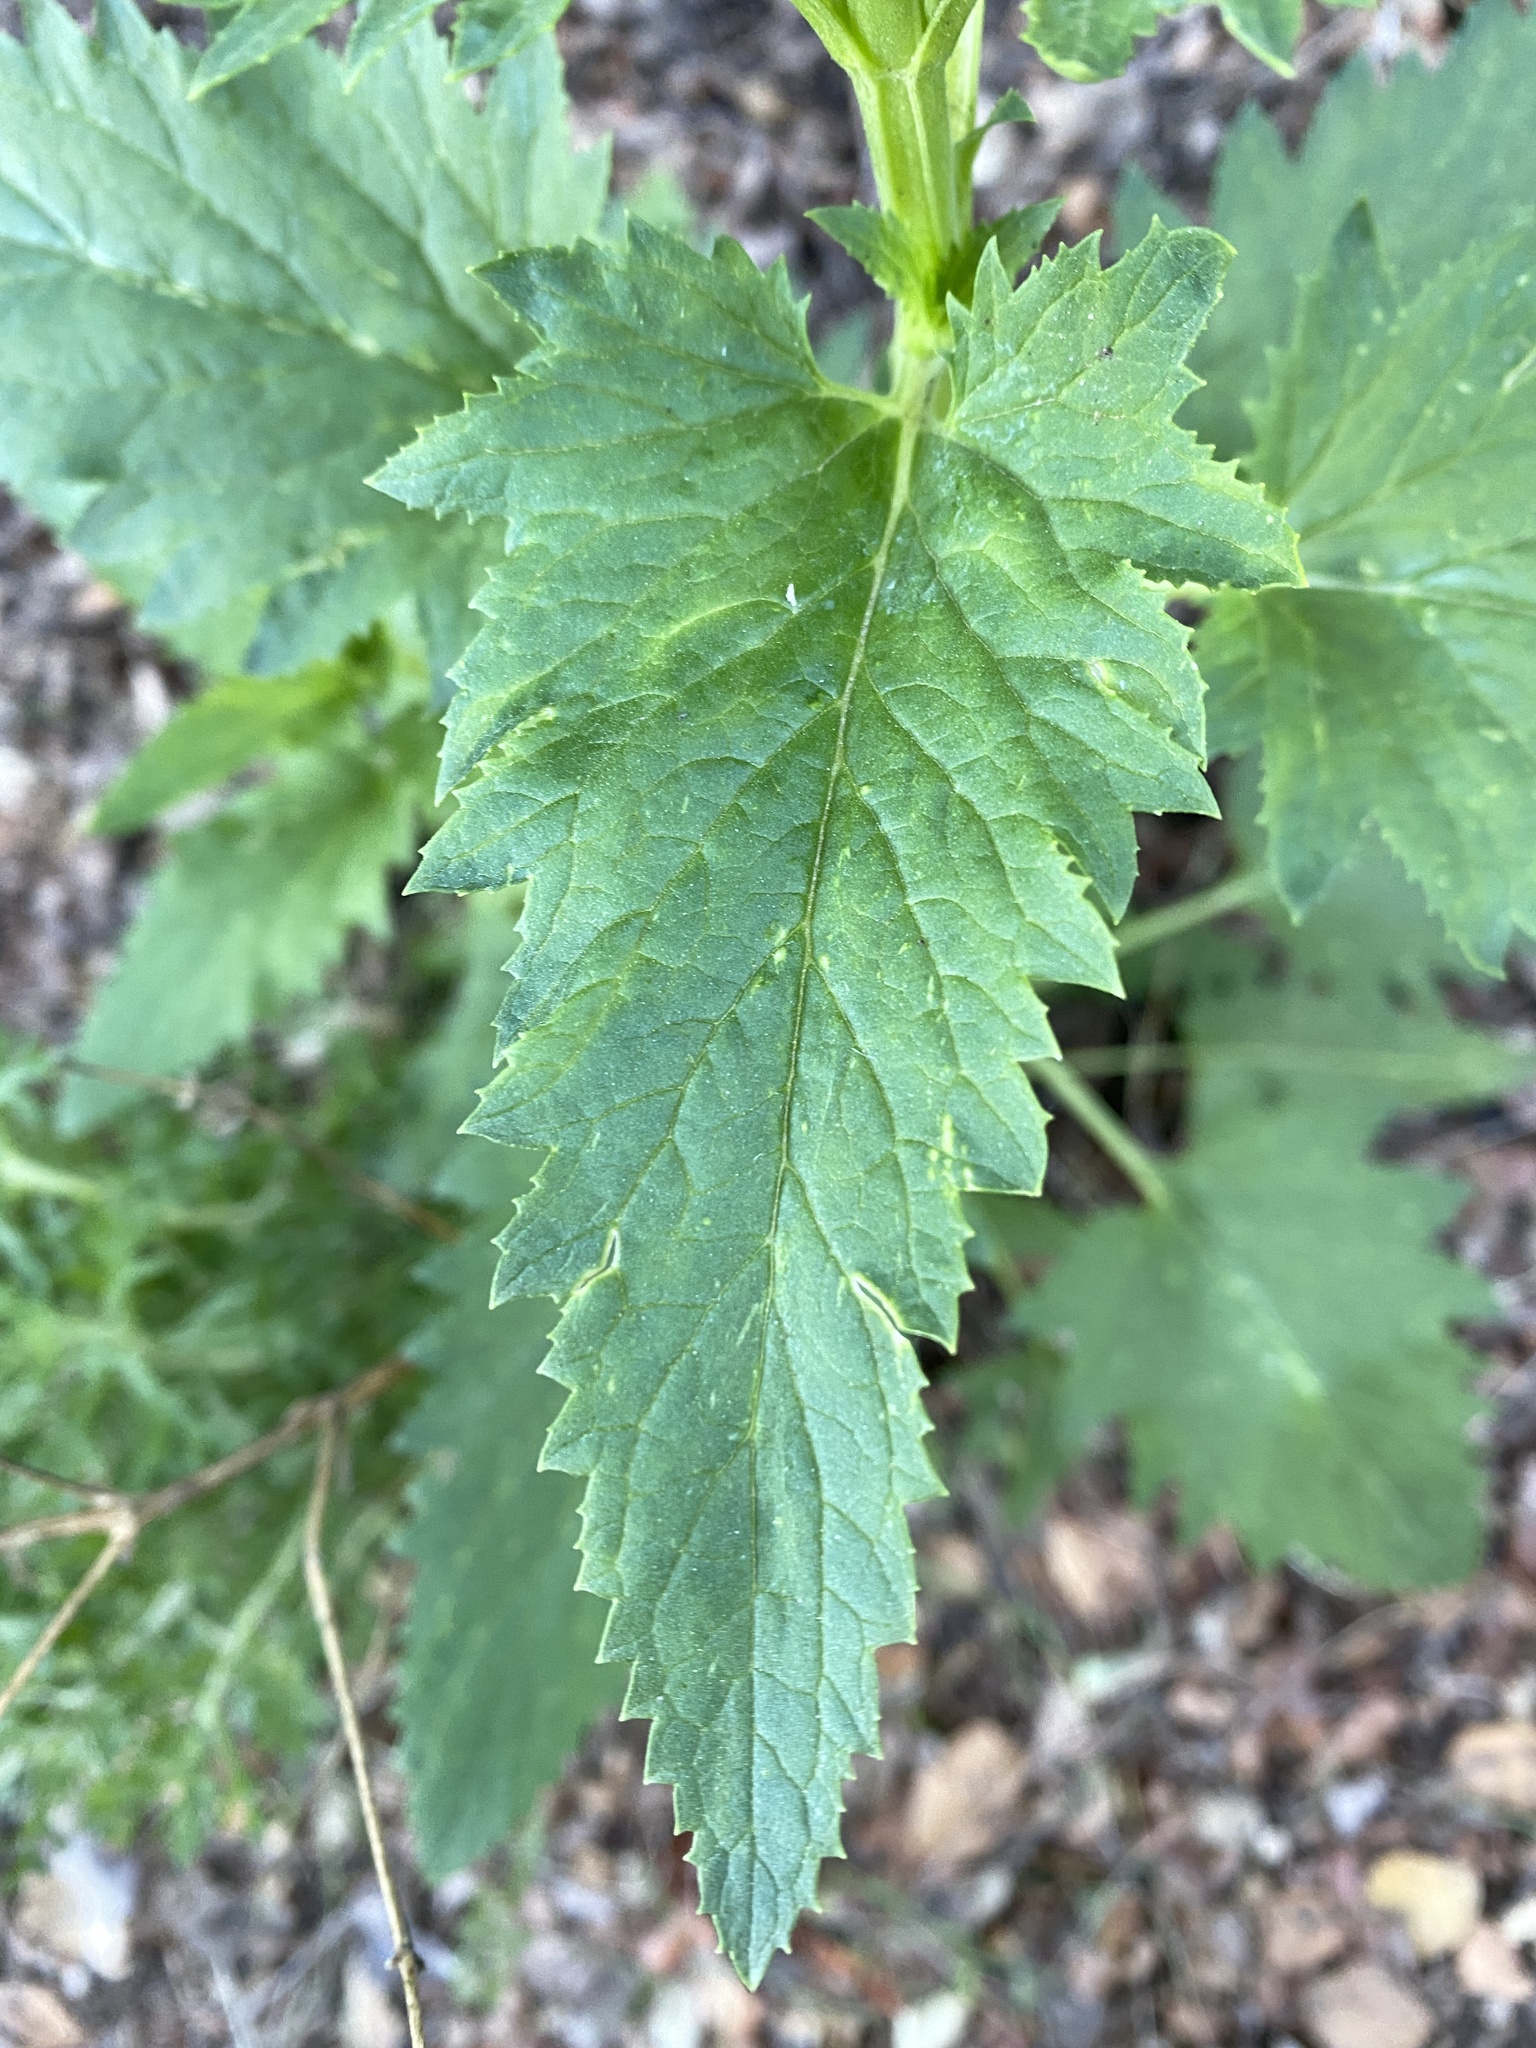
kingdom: Plantae
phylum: Tracheophyta
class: Magnoliopsida
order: Lamiales
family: Scrophulariaceae
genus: Scrophularia
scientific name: Scrophularia californica
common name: California figwort
